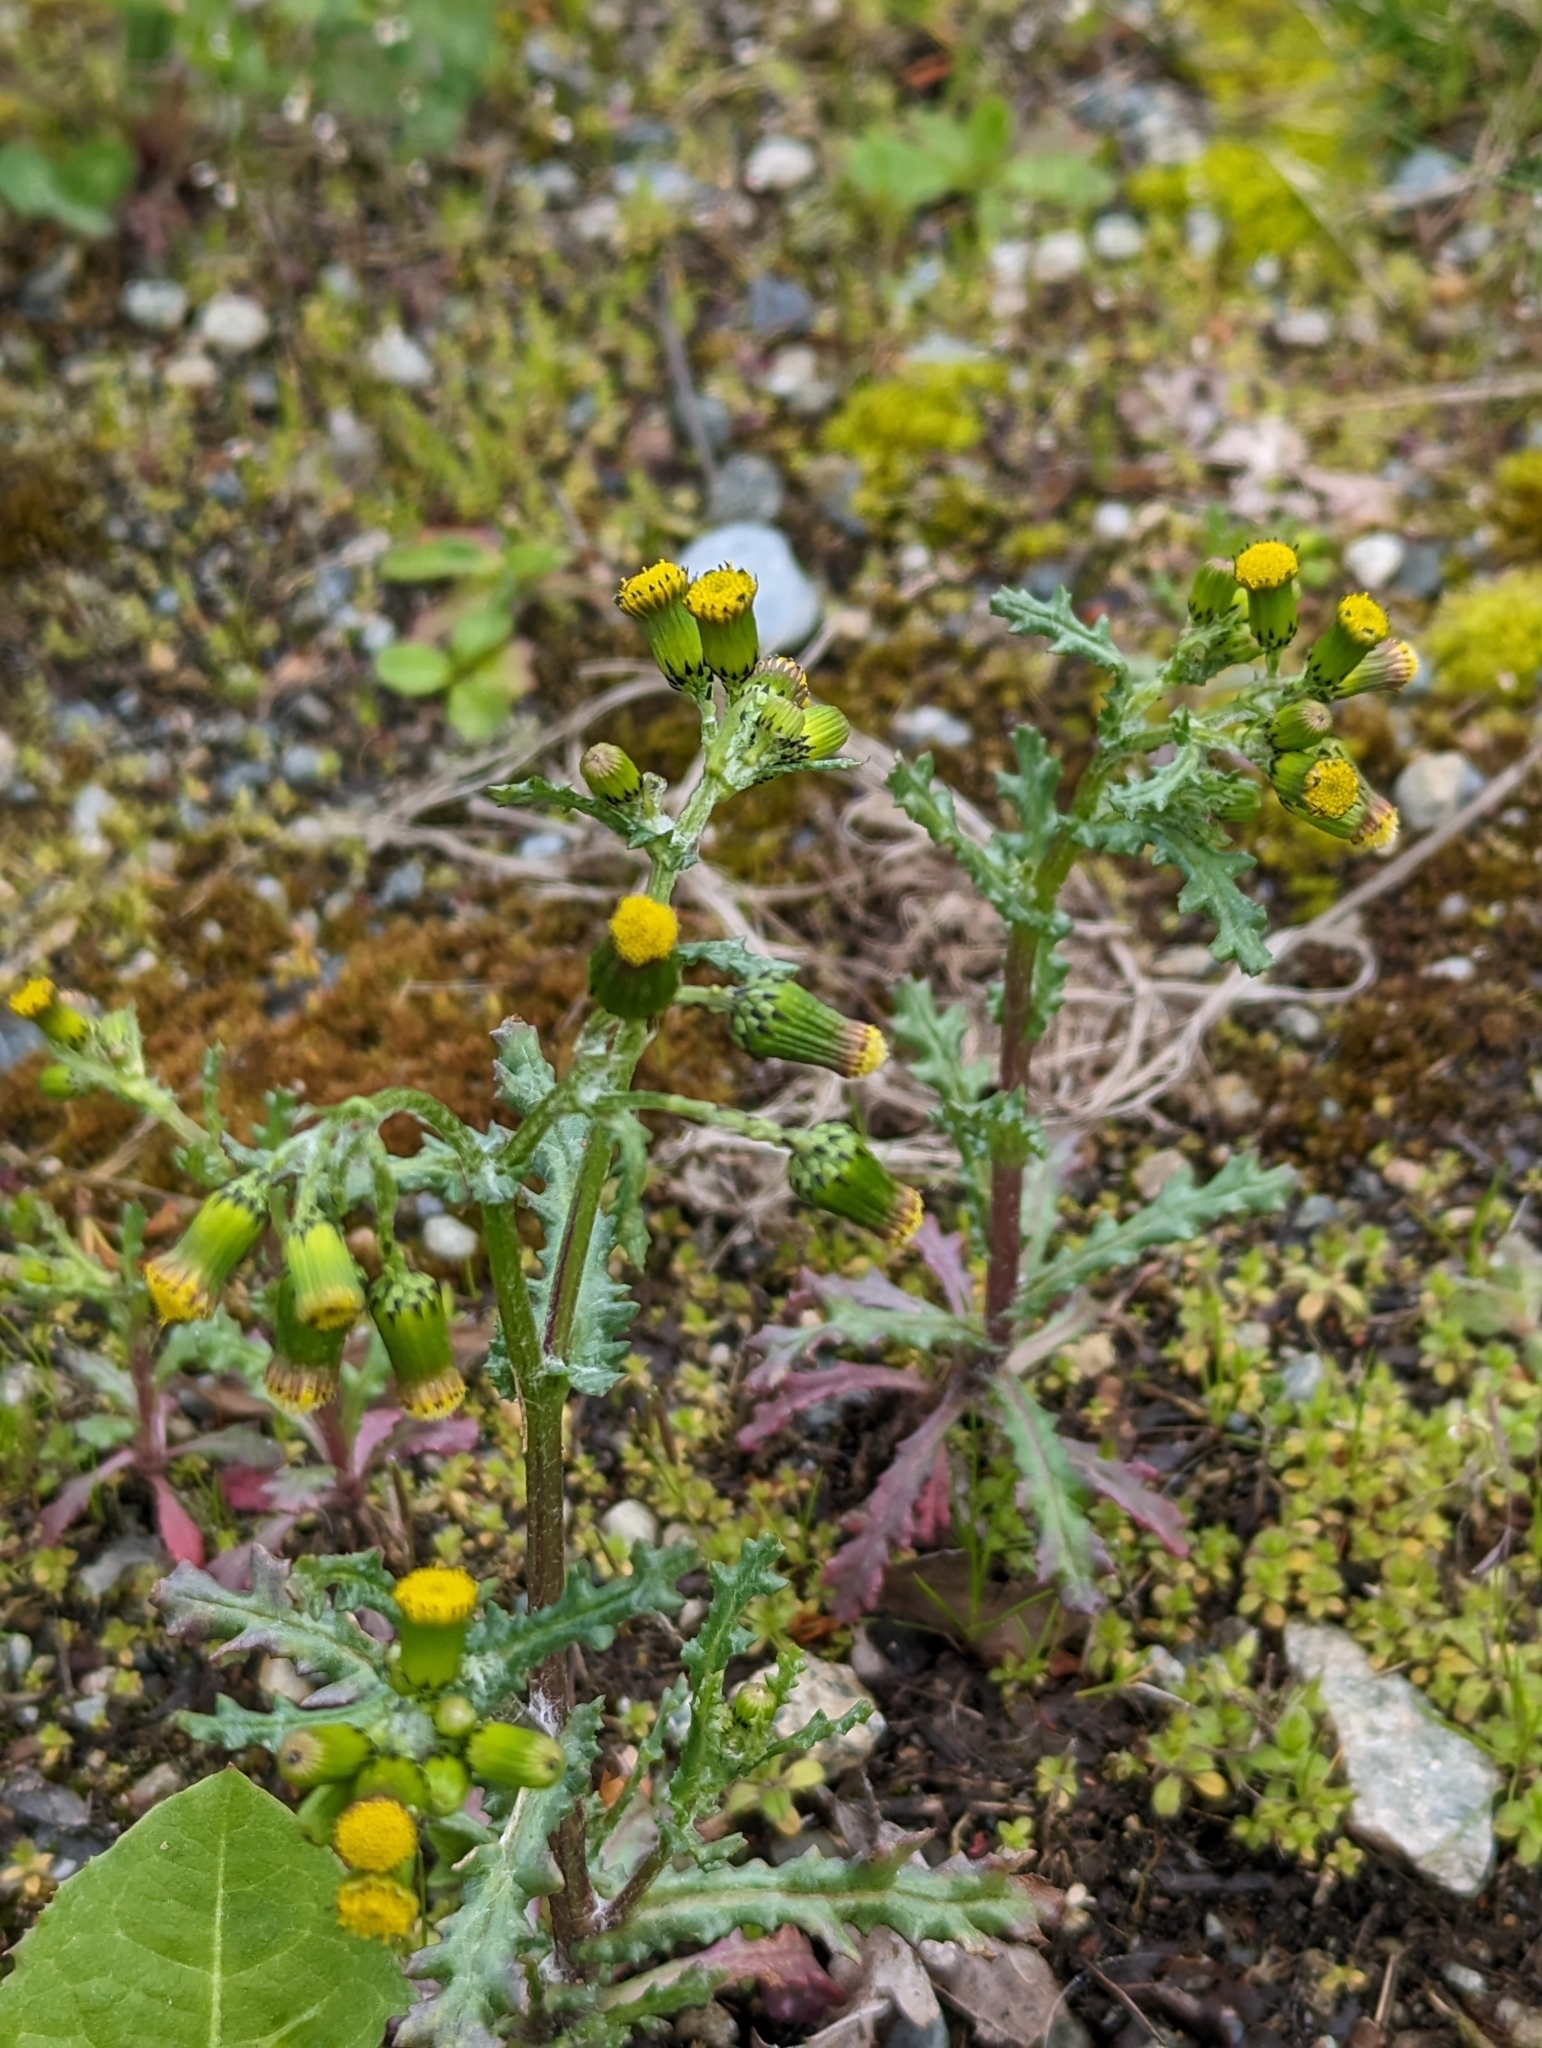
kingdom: Plantae
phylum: Tracheophyta
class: Magnoliopsida
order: Asterales
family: Asteraceae
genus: Senecio
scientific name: Senecio vulgaris
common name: Old-man-in-the-spring
